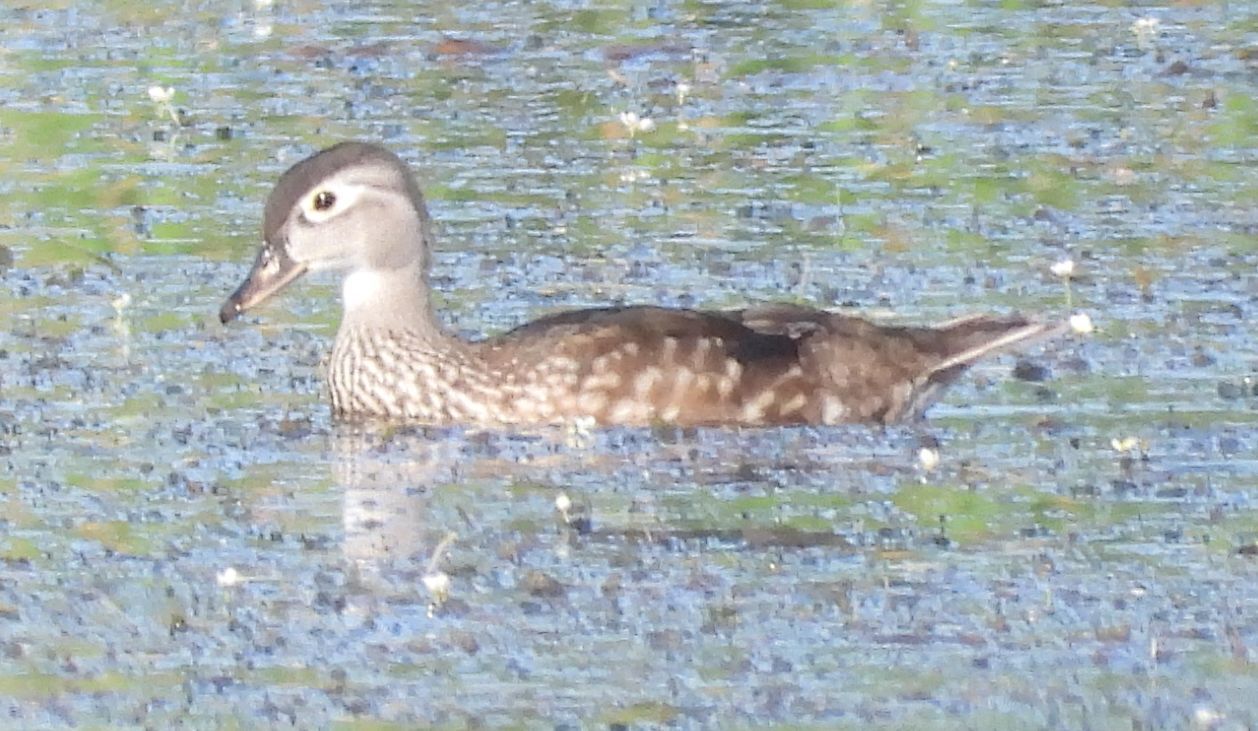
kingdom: Animalia
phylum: Chordata
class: Aves
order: Anseriformes
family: Anatidae
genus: Aix
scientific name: Aix sponsa
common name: Wood duck
